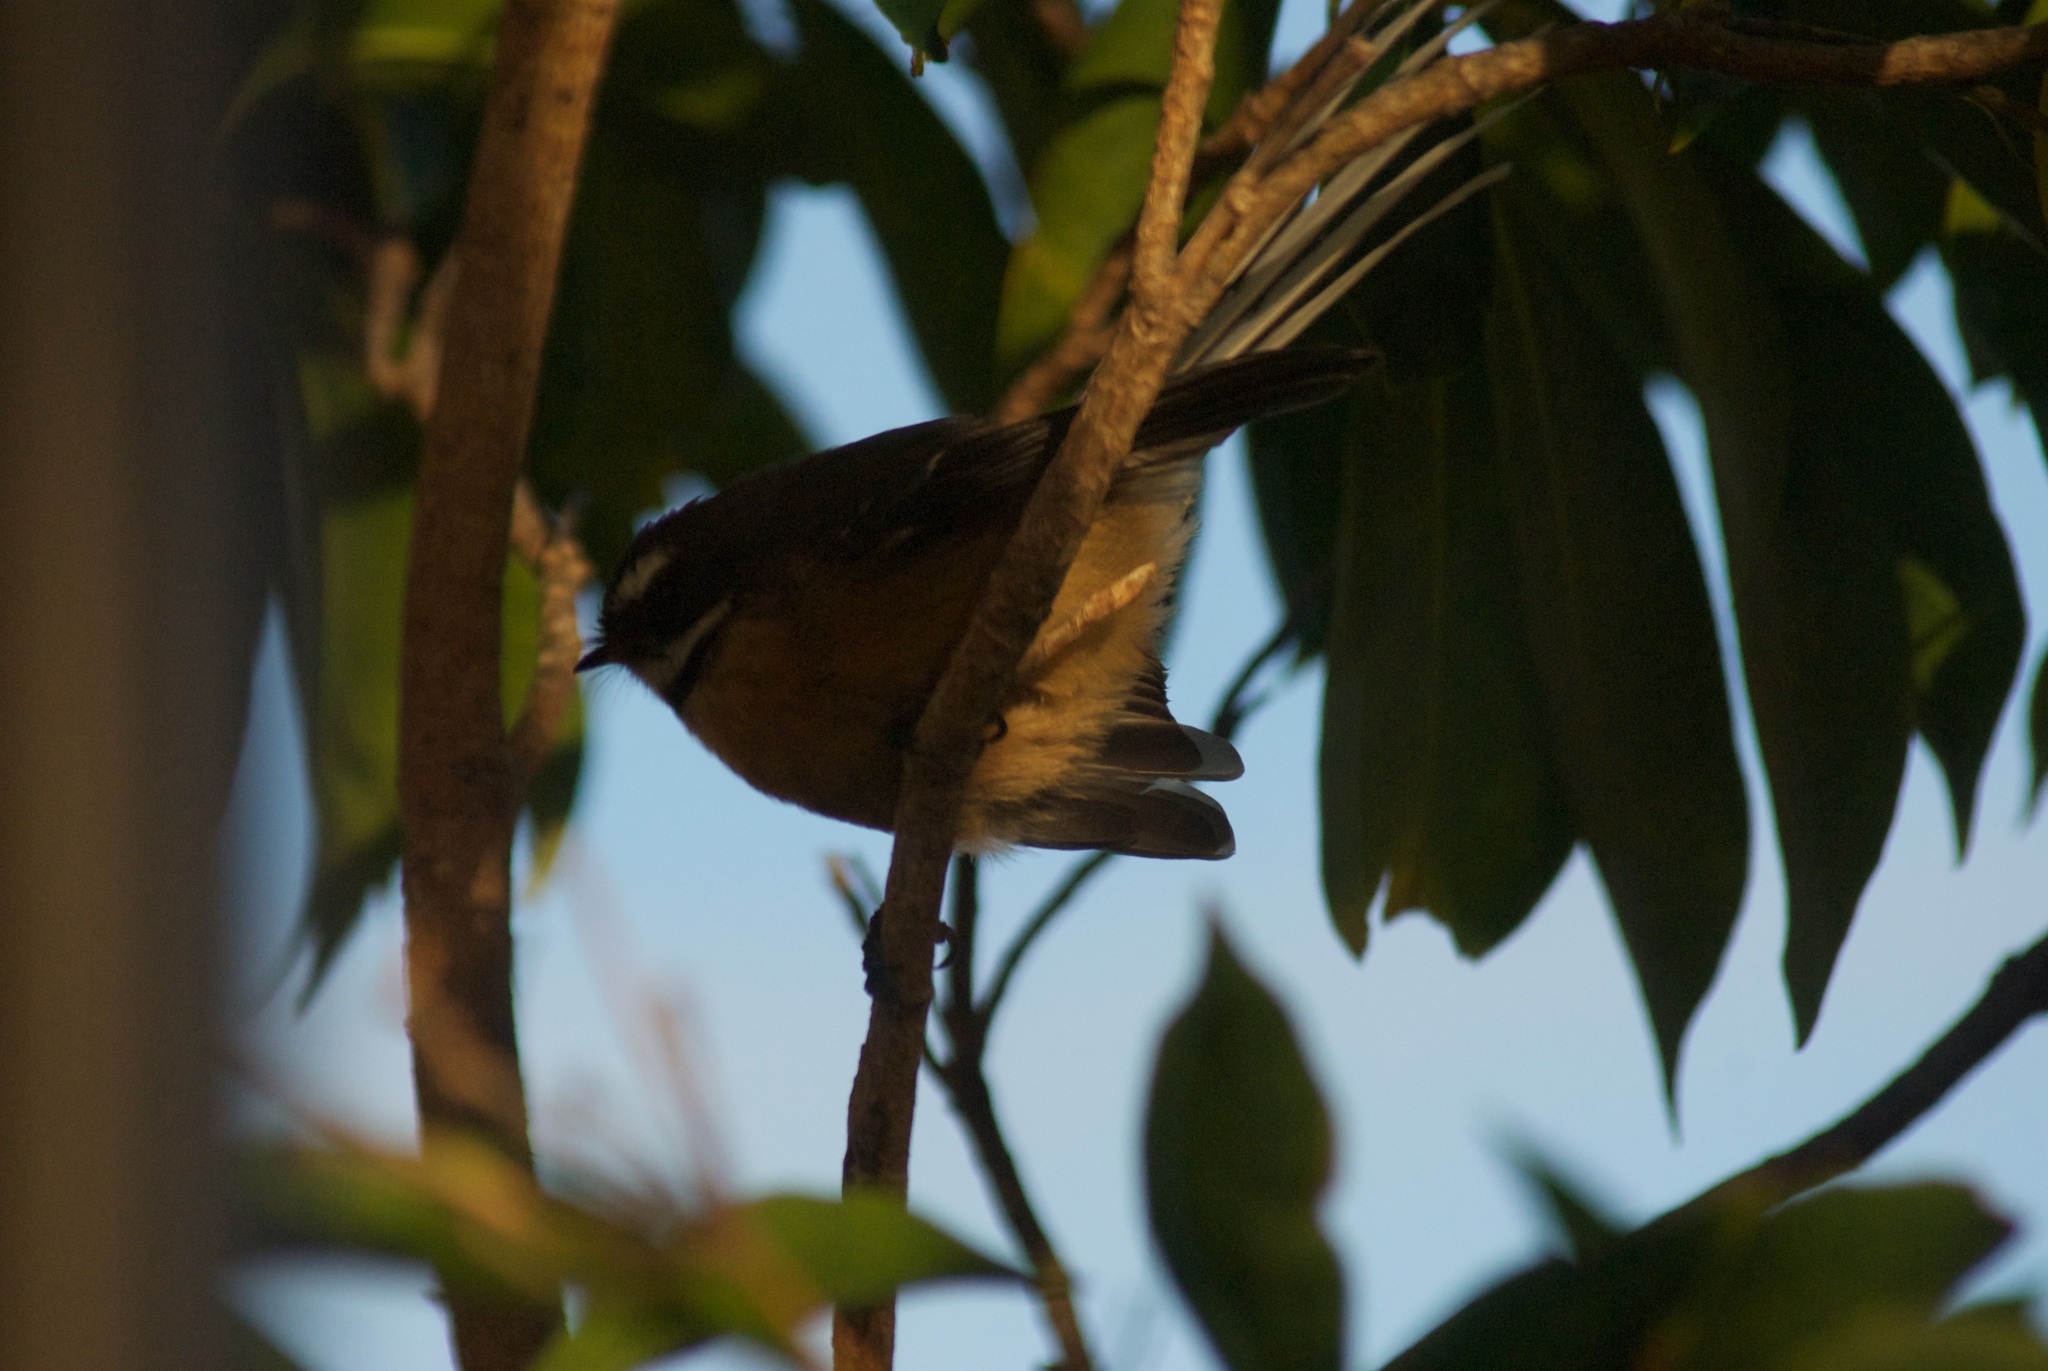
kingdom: Animalia
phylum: Chordata
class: Aves
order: Passeriformes
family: Meliphagidae
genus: Anthornis
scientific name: Anthornis melanura
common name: New zealand bellbird
